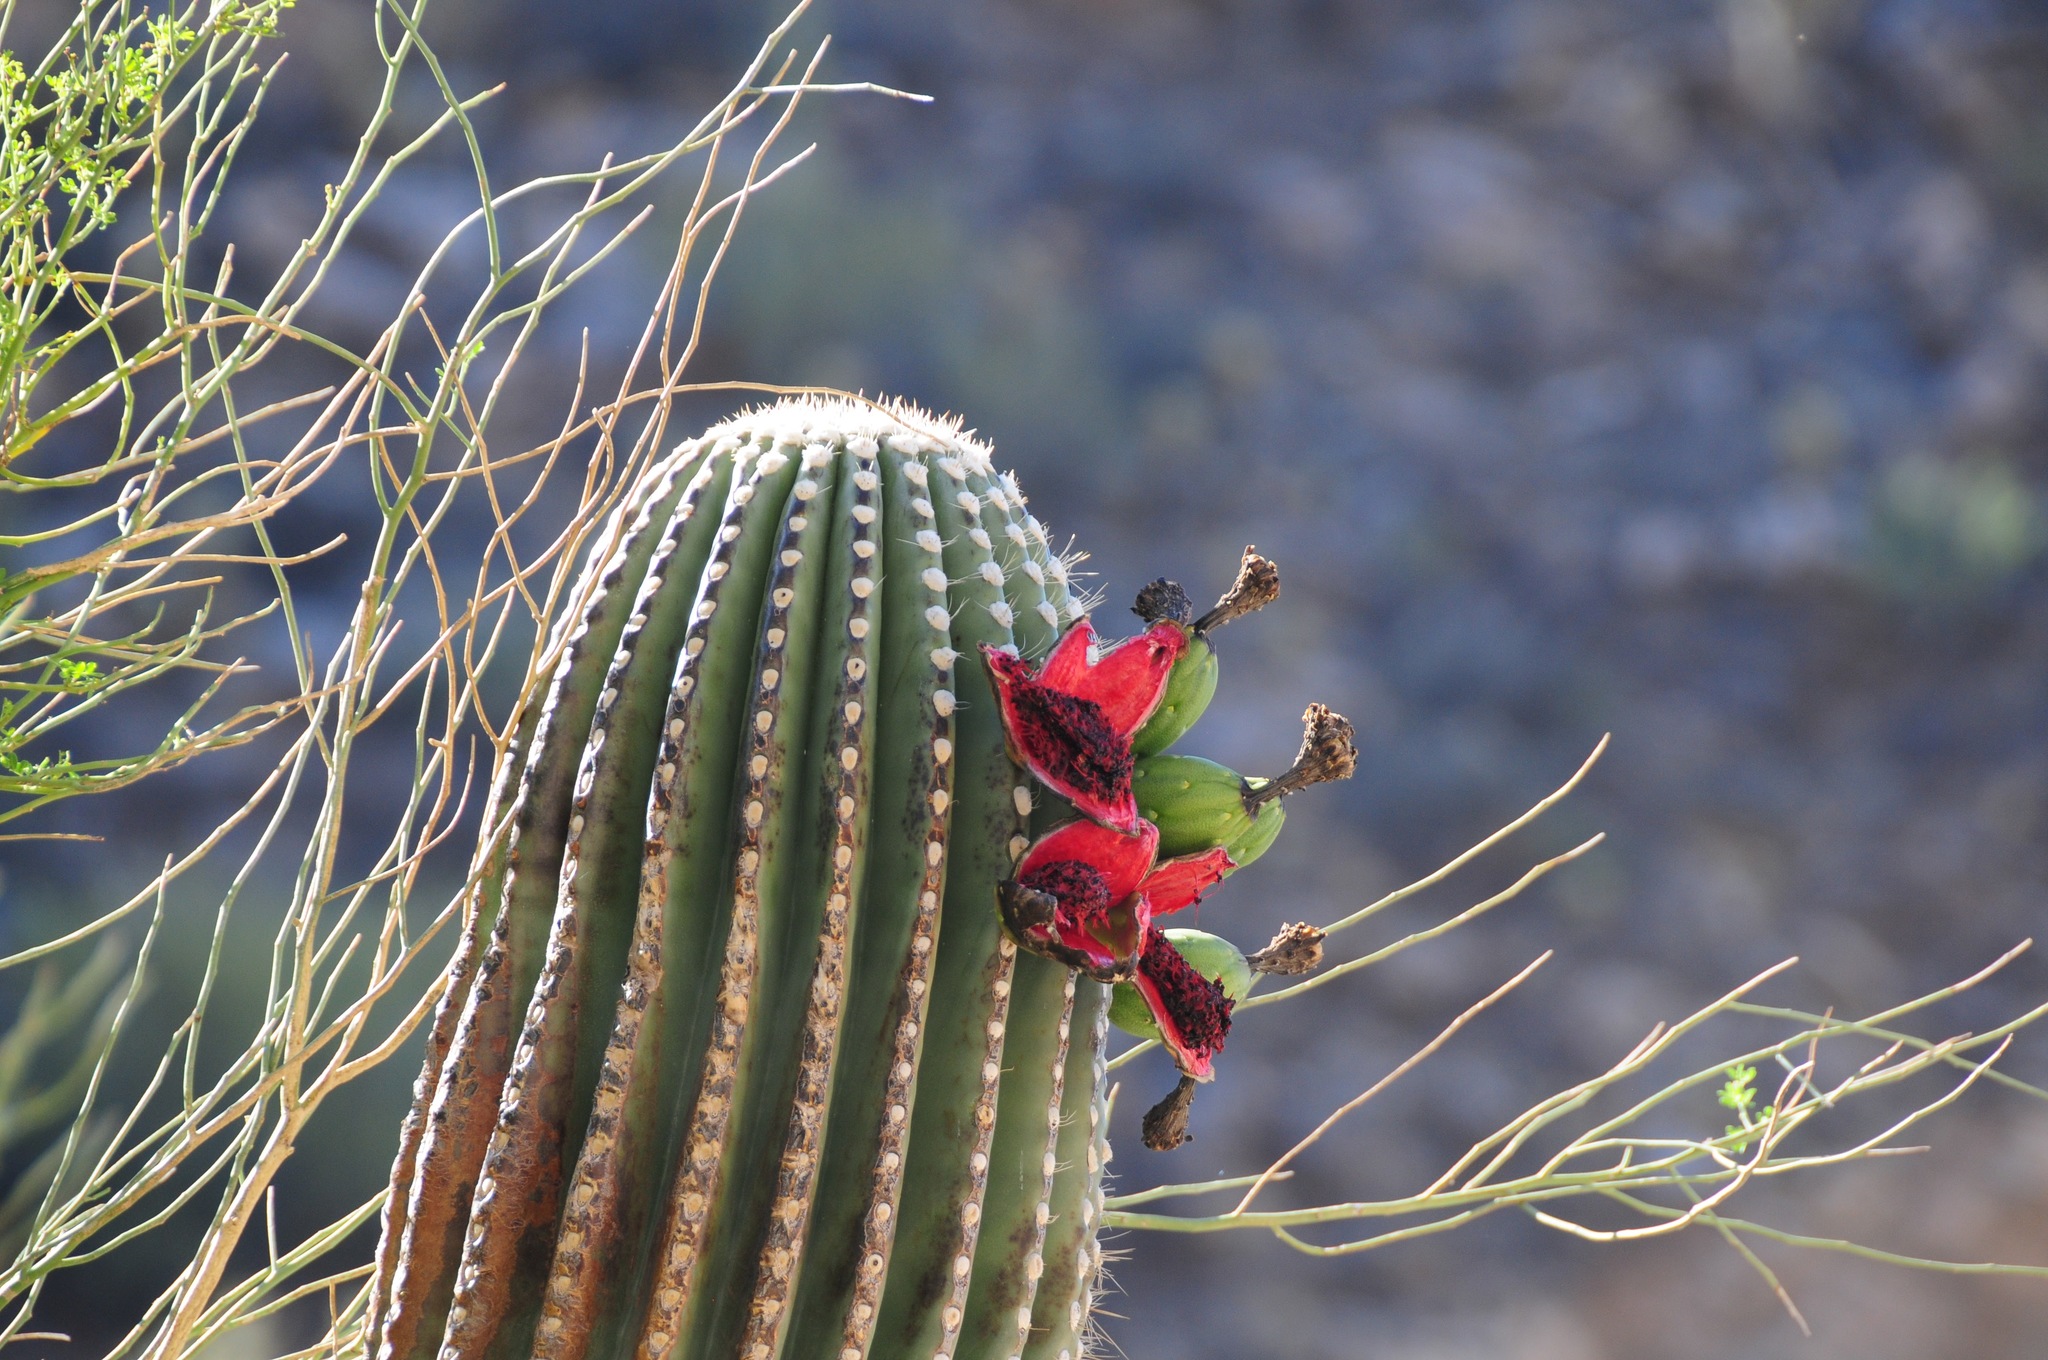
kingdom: Plantae
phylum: Tracheophyta
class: Magnoliopsida
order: Caryophyllales
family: Cactaceae
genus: Carnegiea
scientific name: Carnegiea gigantea
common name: Saguaro
